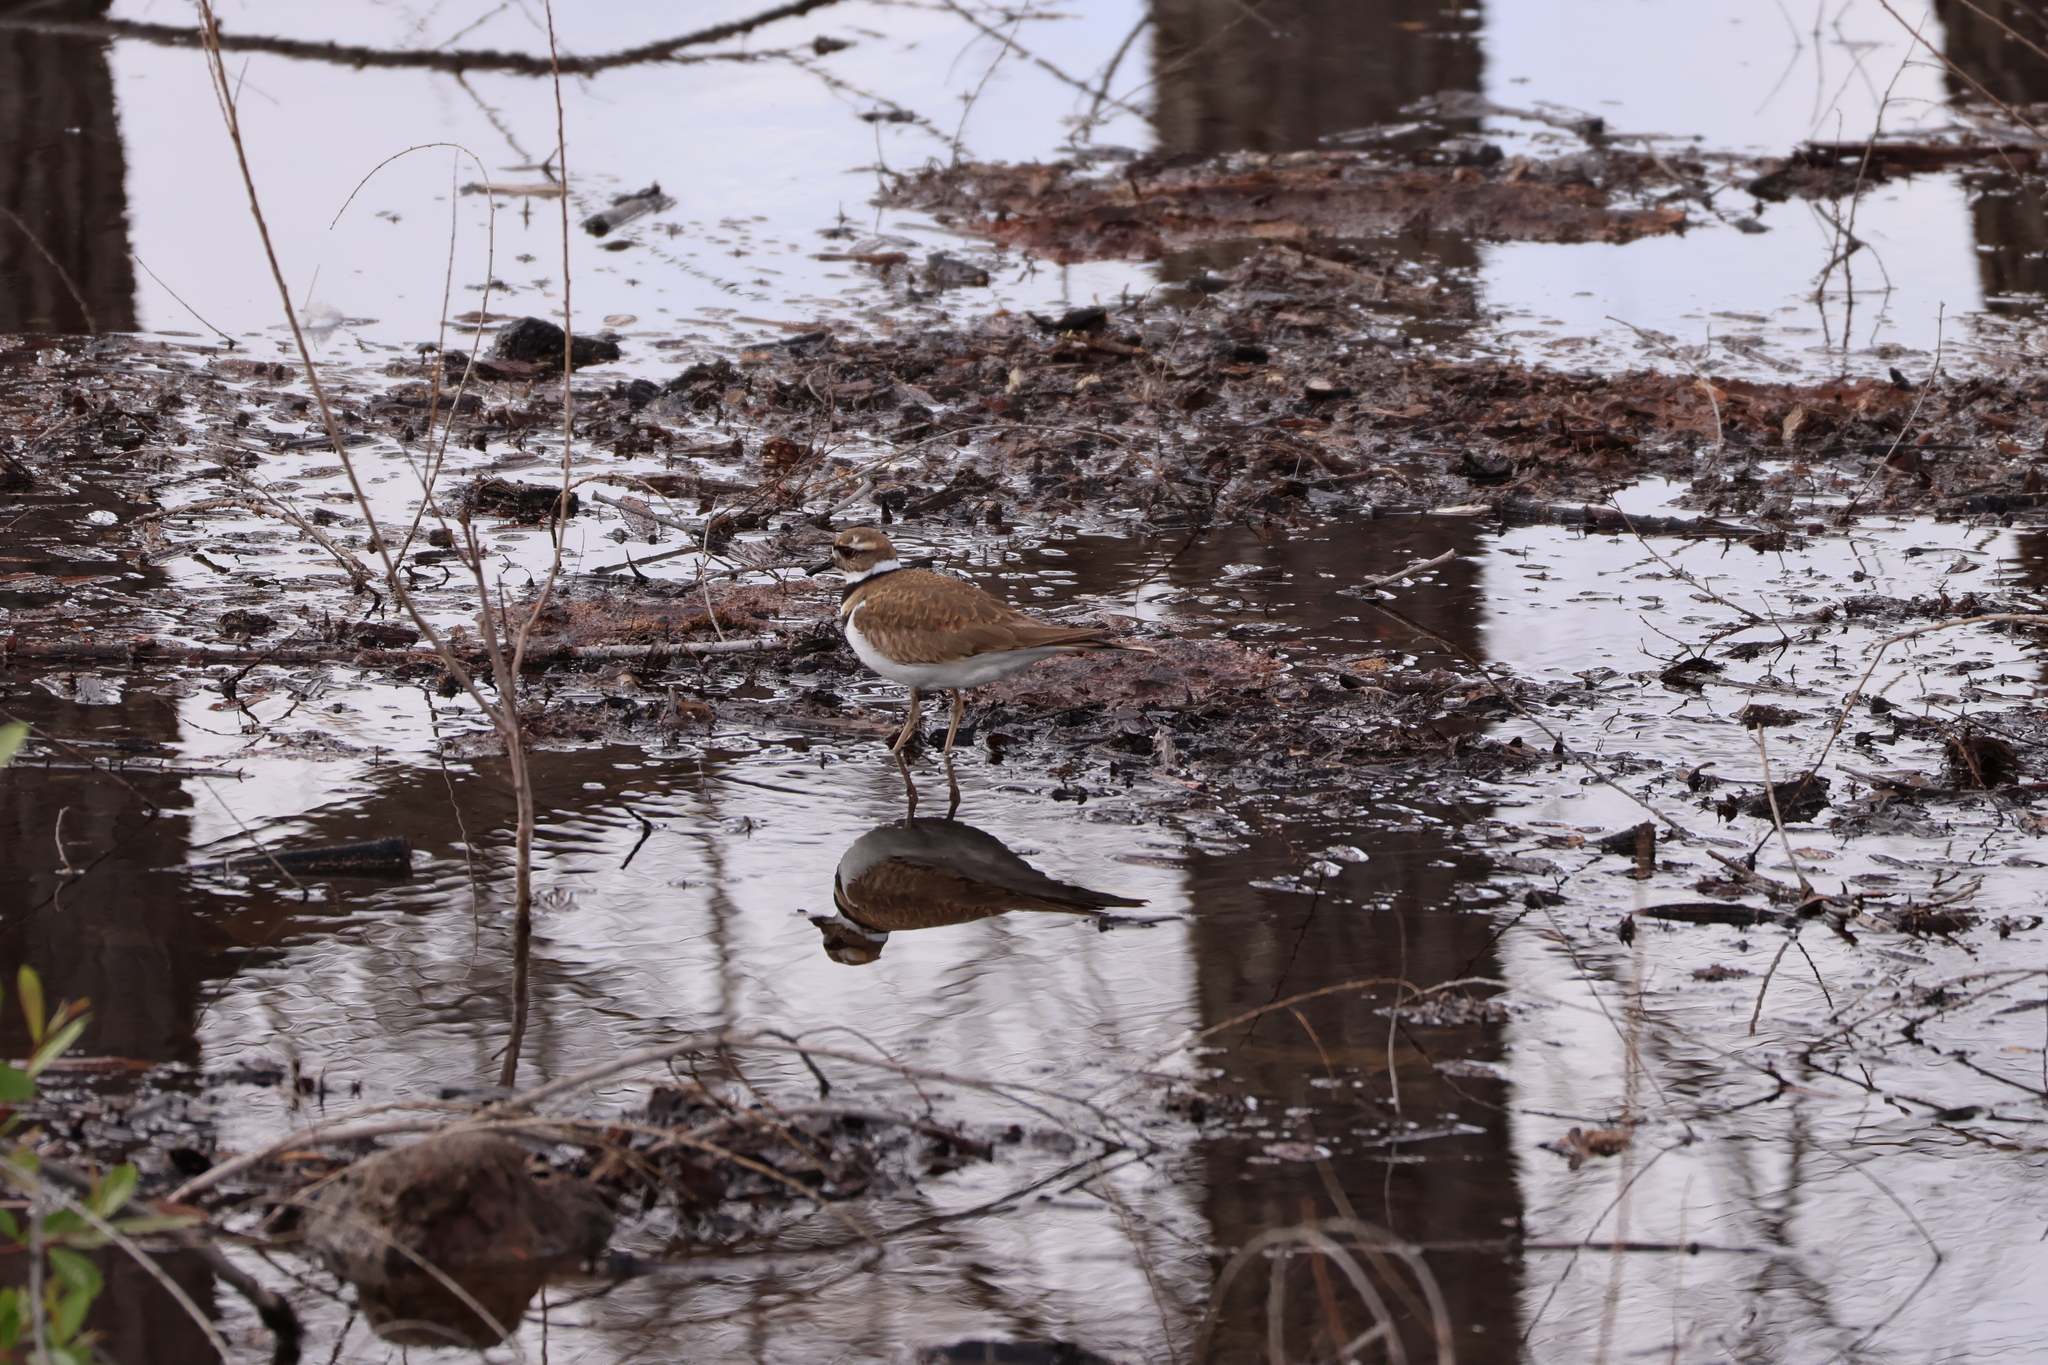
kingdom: Animalia
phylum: Chordata
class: Aves
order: Charadriiformes
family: Charadriidae
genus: Charadrius
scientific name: Charadrius vociferus
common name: Killdeer
